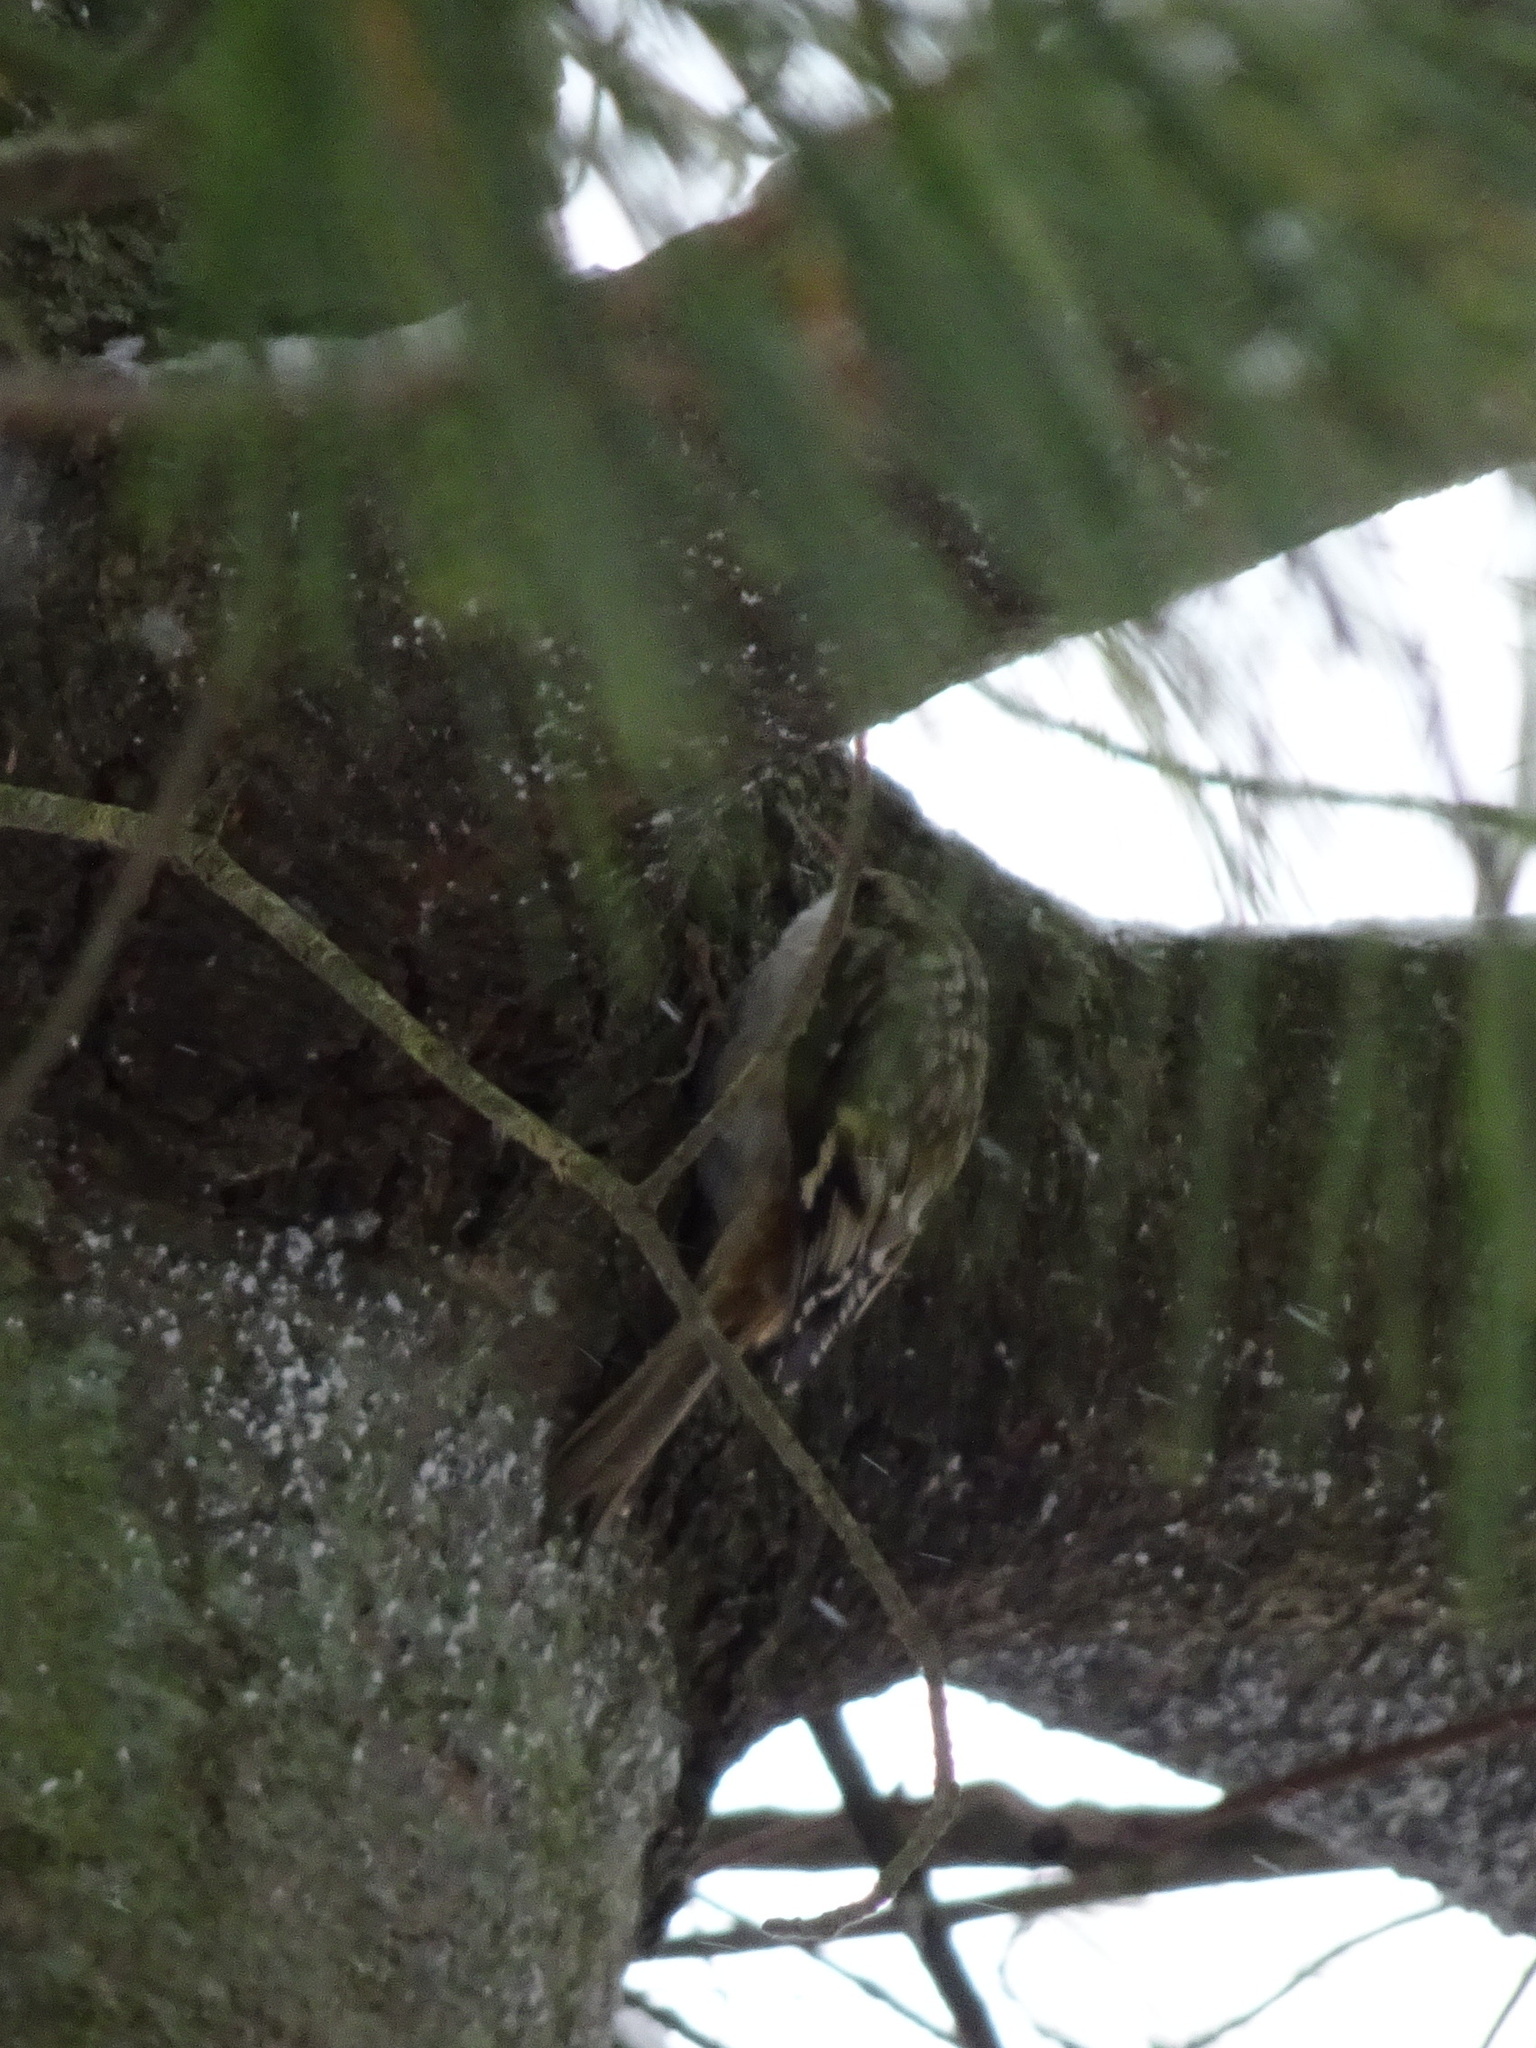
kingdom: Animalia
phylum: Chordata
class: Aves
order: Passeriformes
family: Certhiidae
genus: Certhia
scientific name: Certhia americana
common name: Brown creeper
